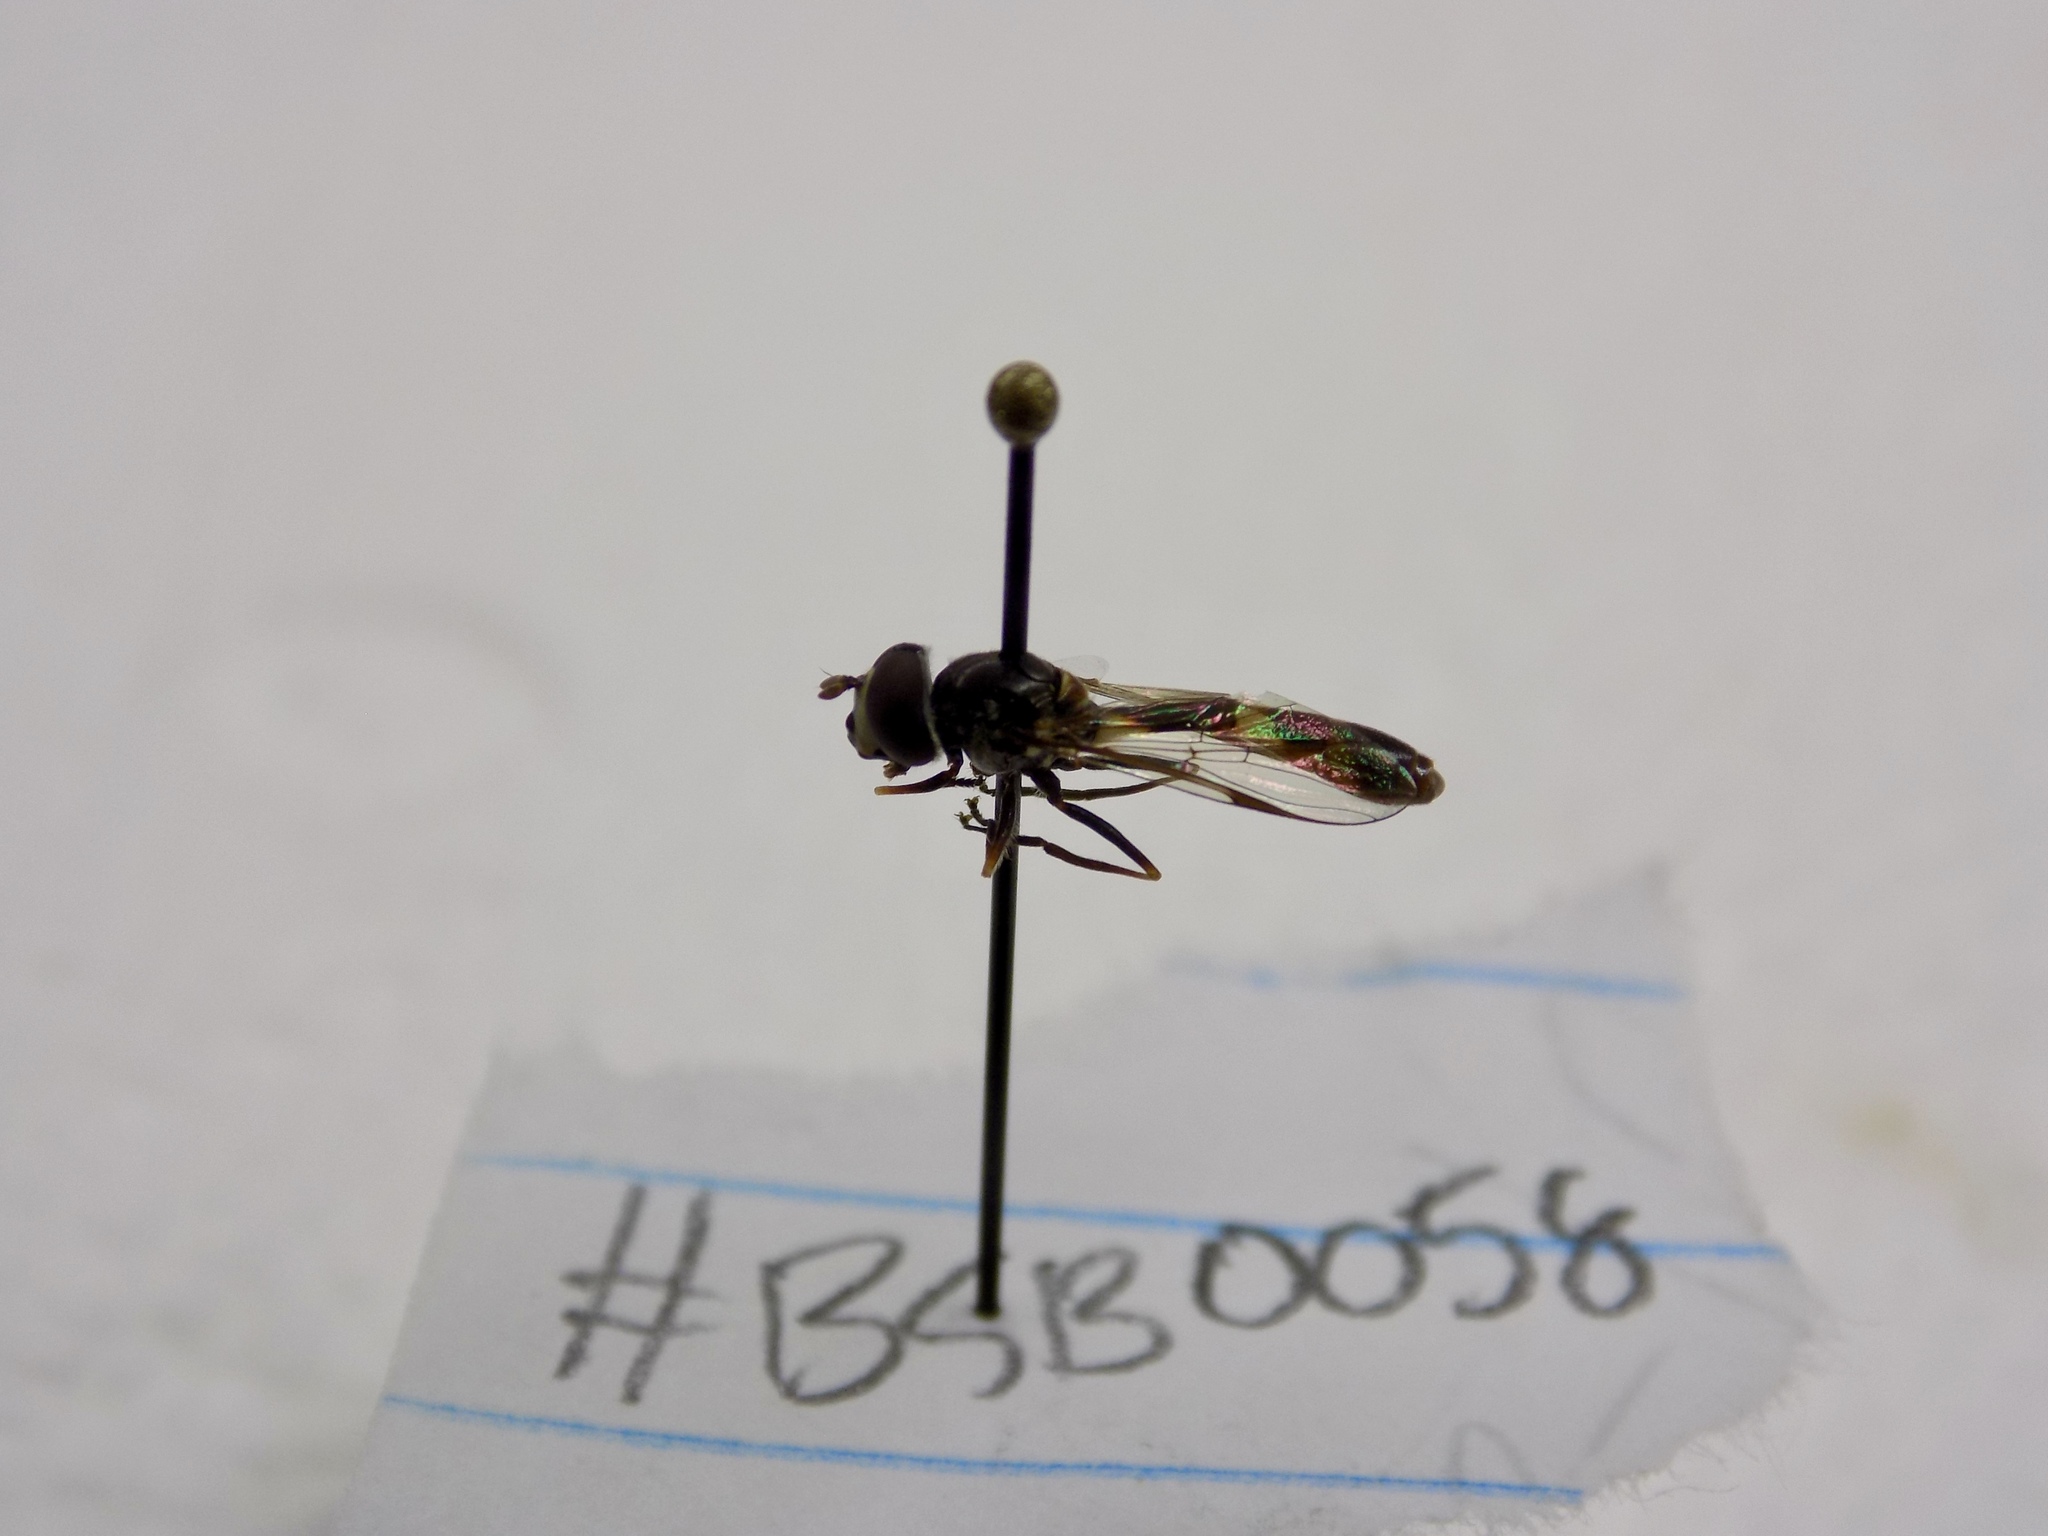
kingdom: Animalia
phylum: Arthropoda
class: Insecta
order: Diptera
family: Syrphidae
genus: Dioprosopa
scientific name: Dioprosopa clavatus
